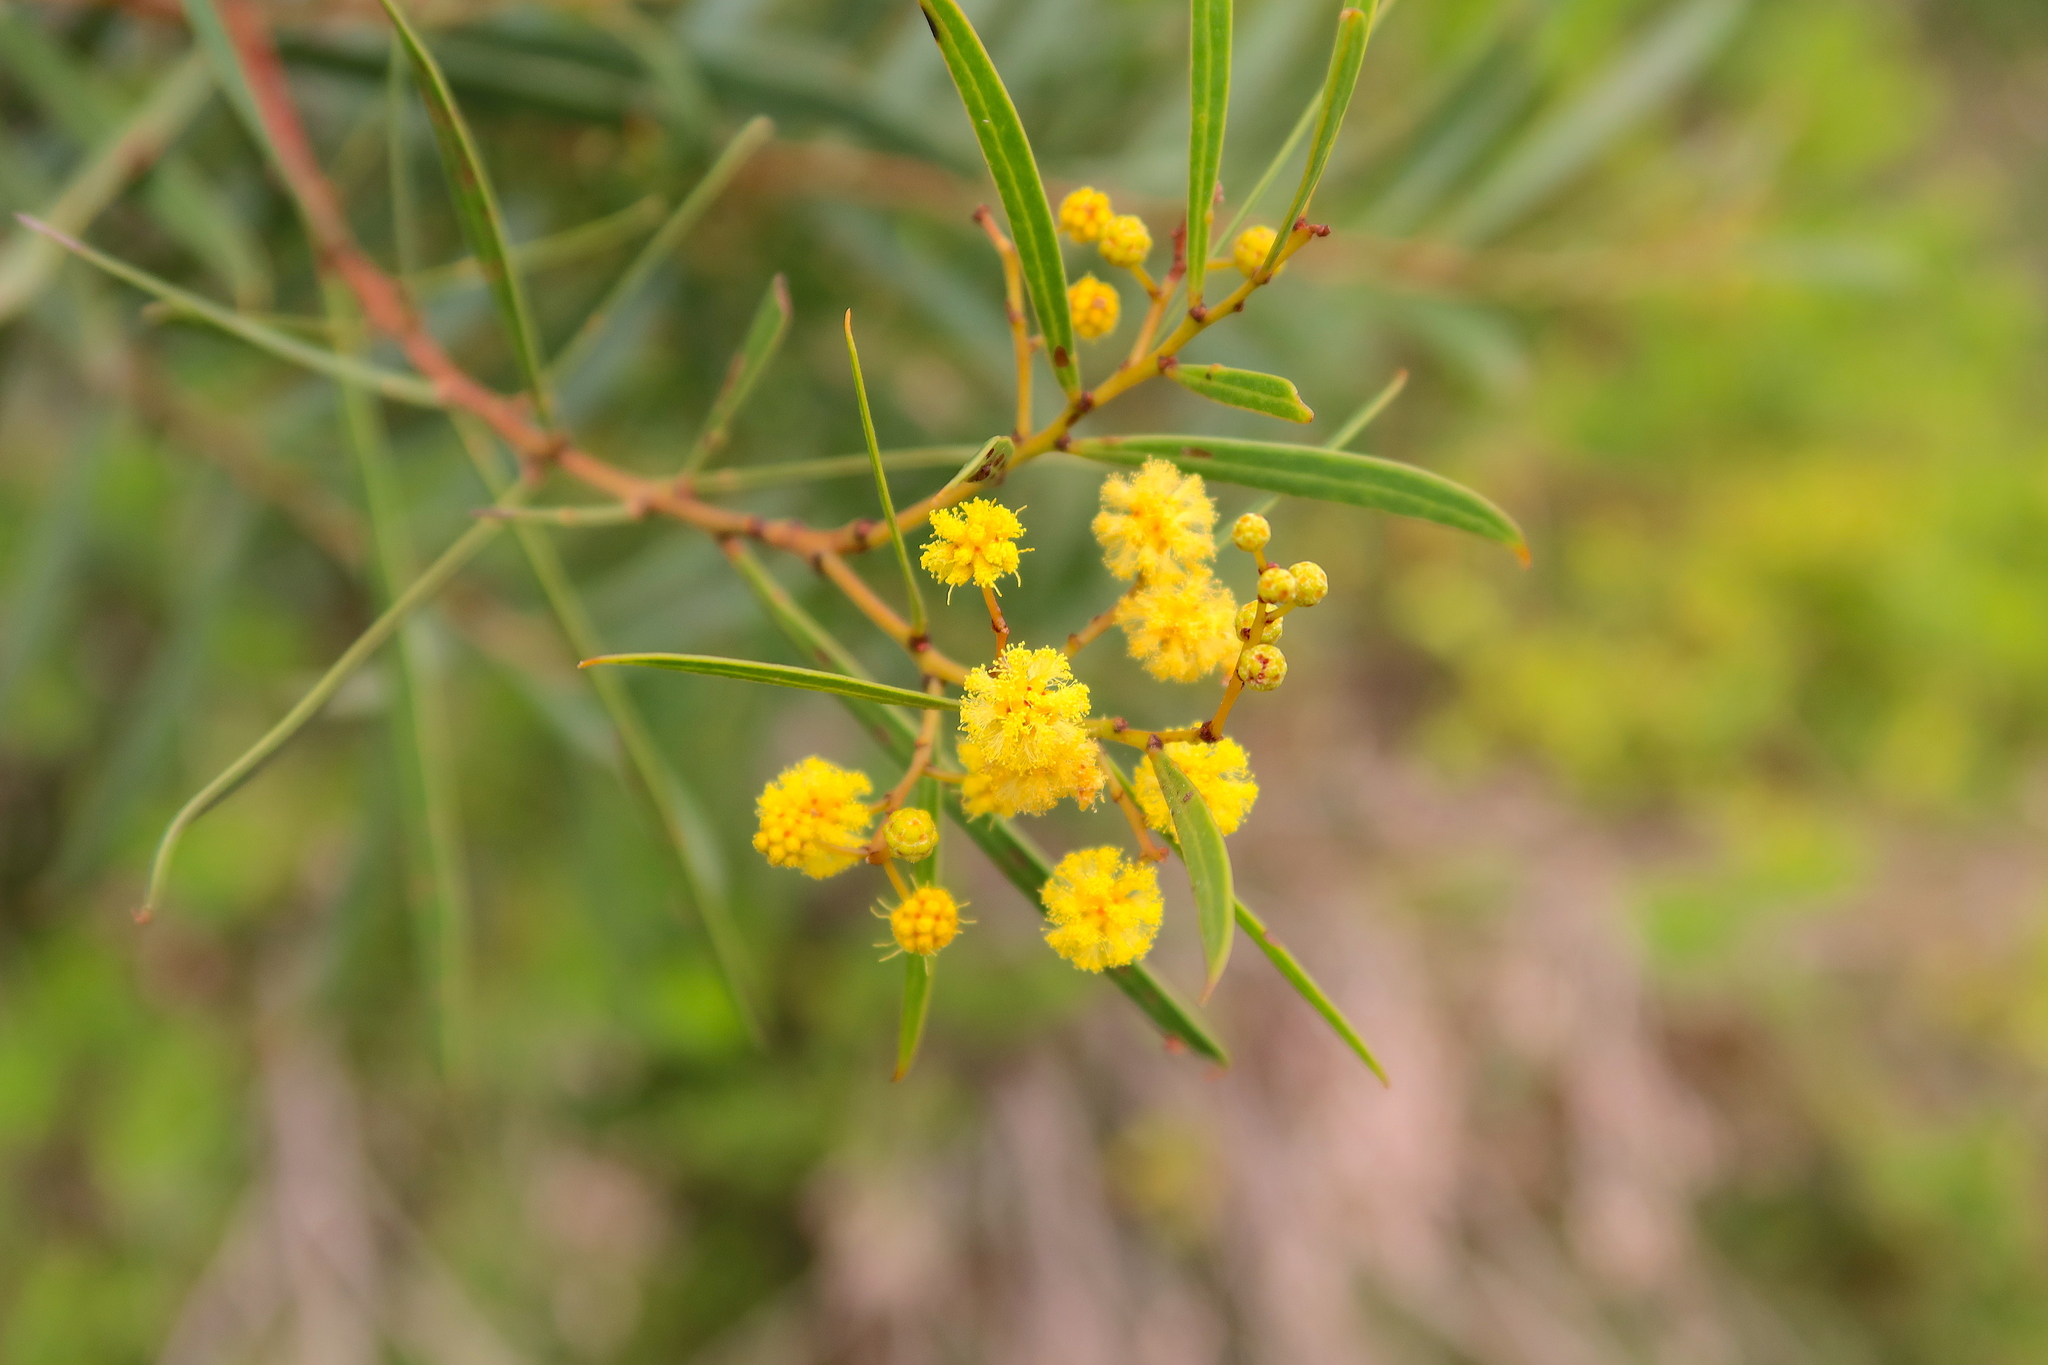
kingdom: Plantae
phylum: Tracheophyta
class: Magnoliopsida
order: Fabales
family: Fabaceae
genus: Acacia
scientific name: Acacia uncifolia
